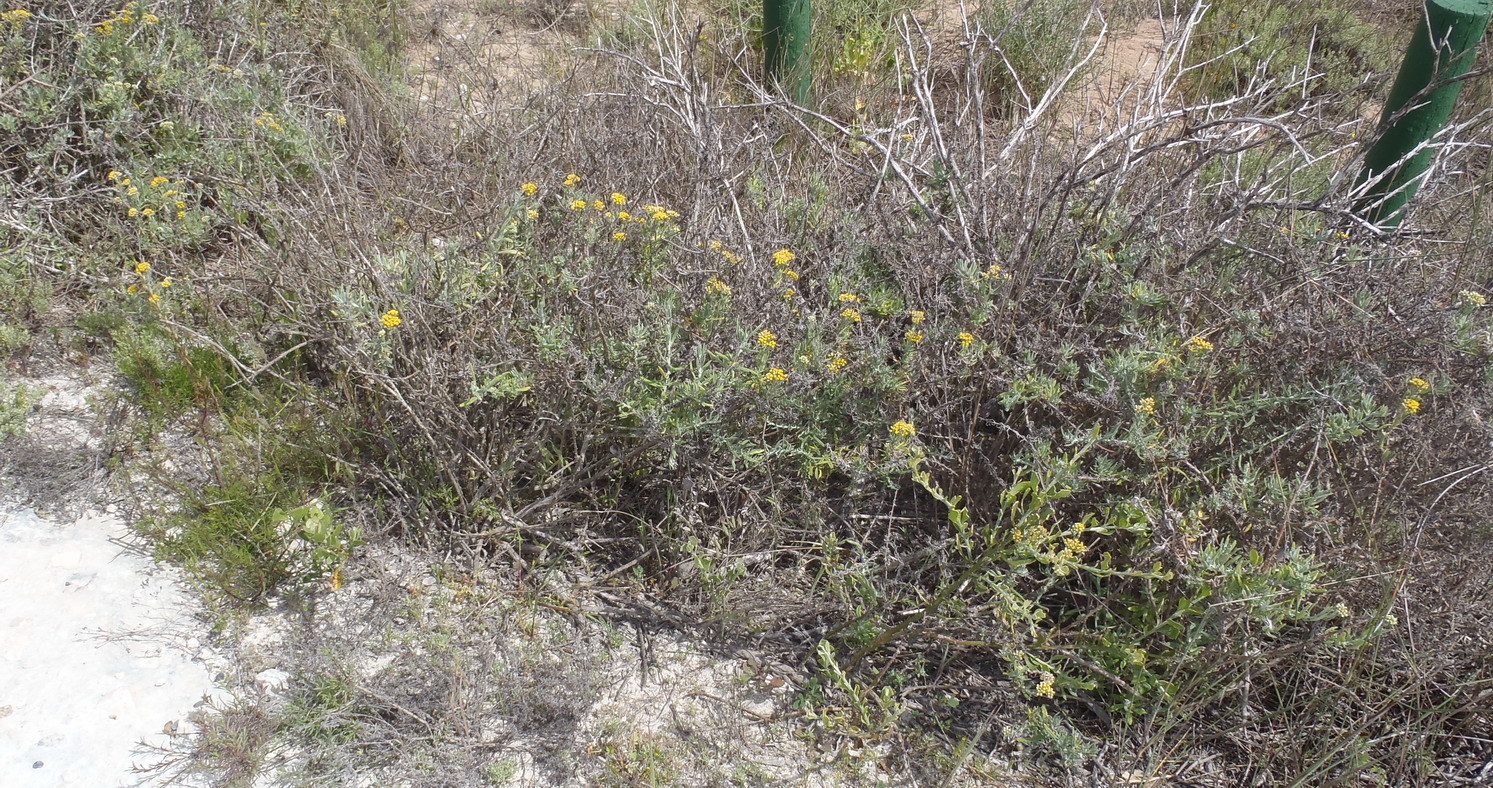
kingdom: Plantae
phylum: Tracheophyta
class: Magnoliopsida
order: Asterales
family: Asteraceae
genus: Helichrysum
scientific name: Helichrysum revolutum
